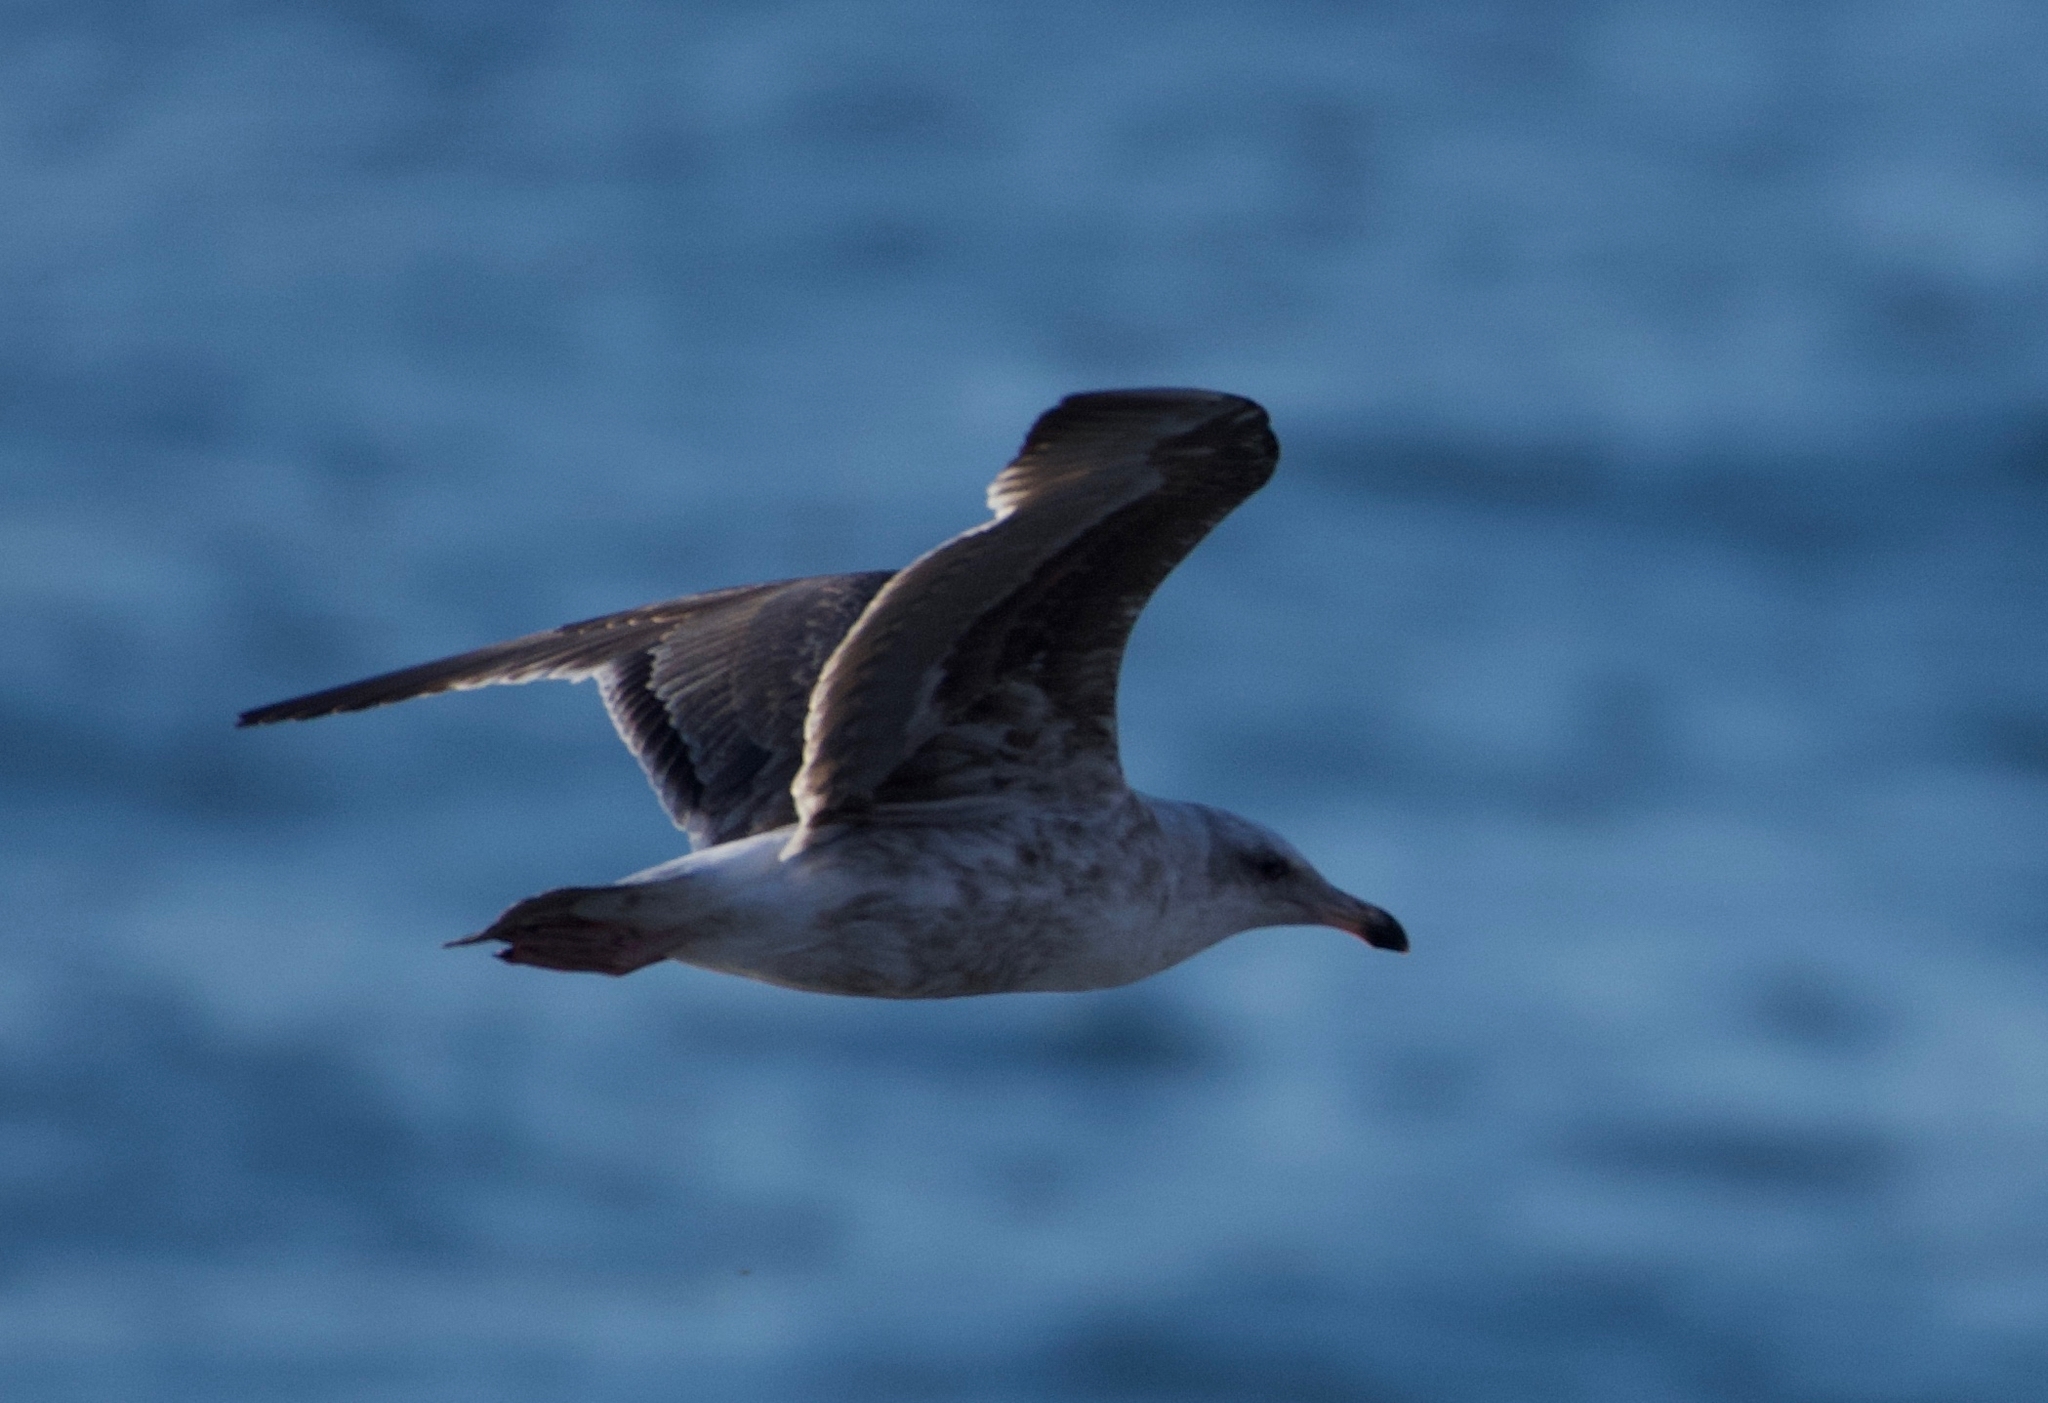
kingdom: Animalia
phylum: Chordata
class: Aves
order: Charadriiformes
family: Laridae
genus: Larus
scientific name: Larus occidentalis
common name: Western gull
